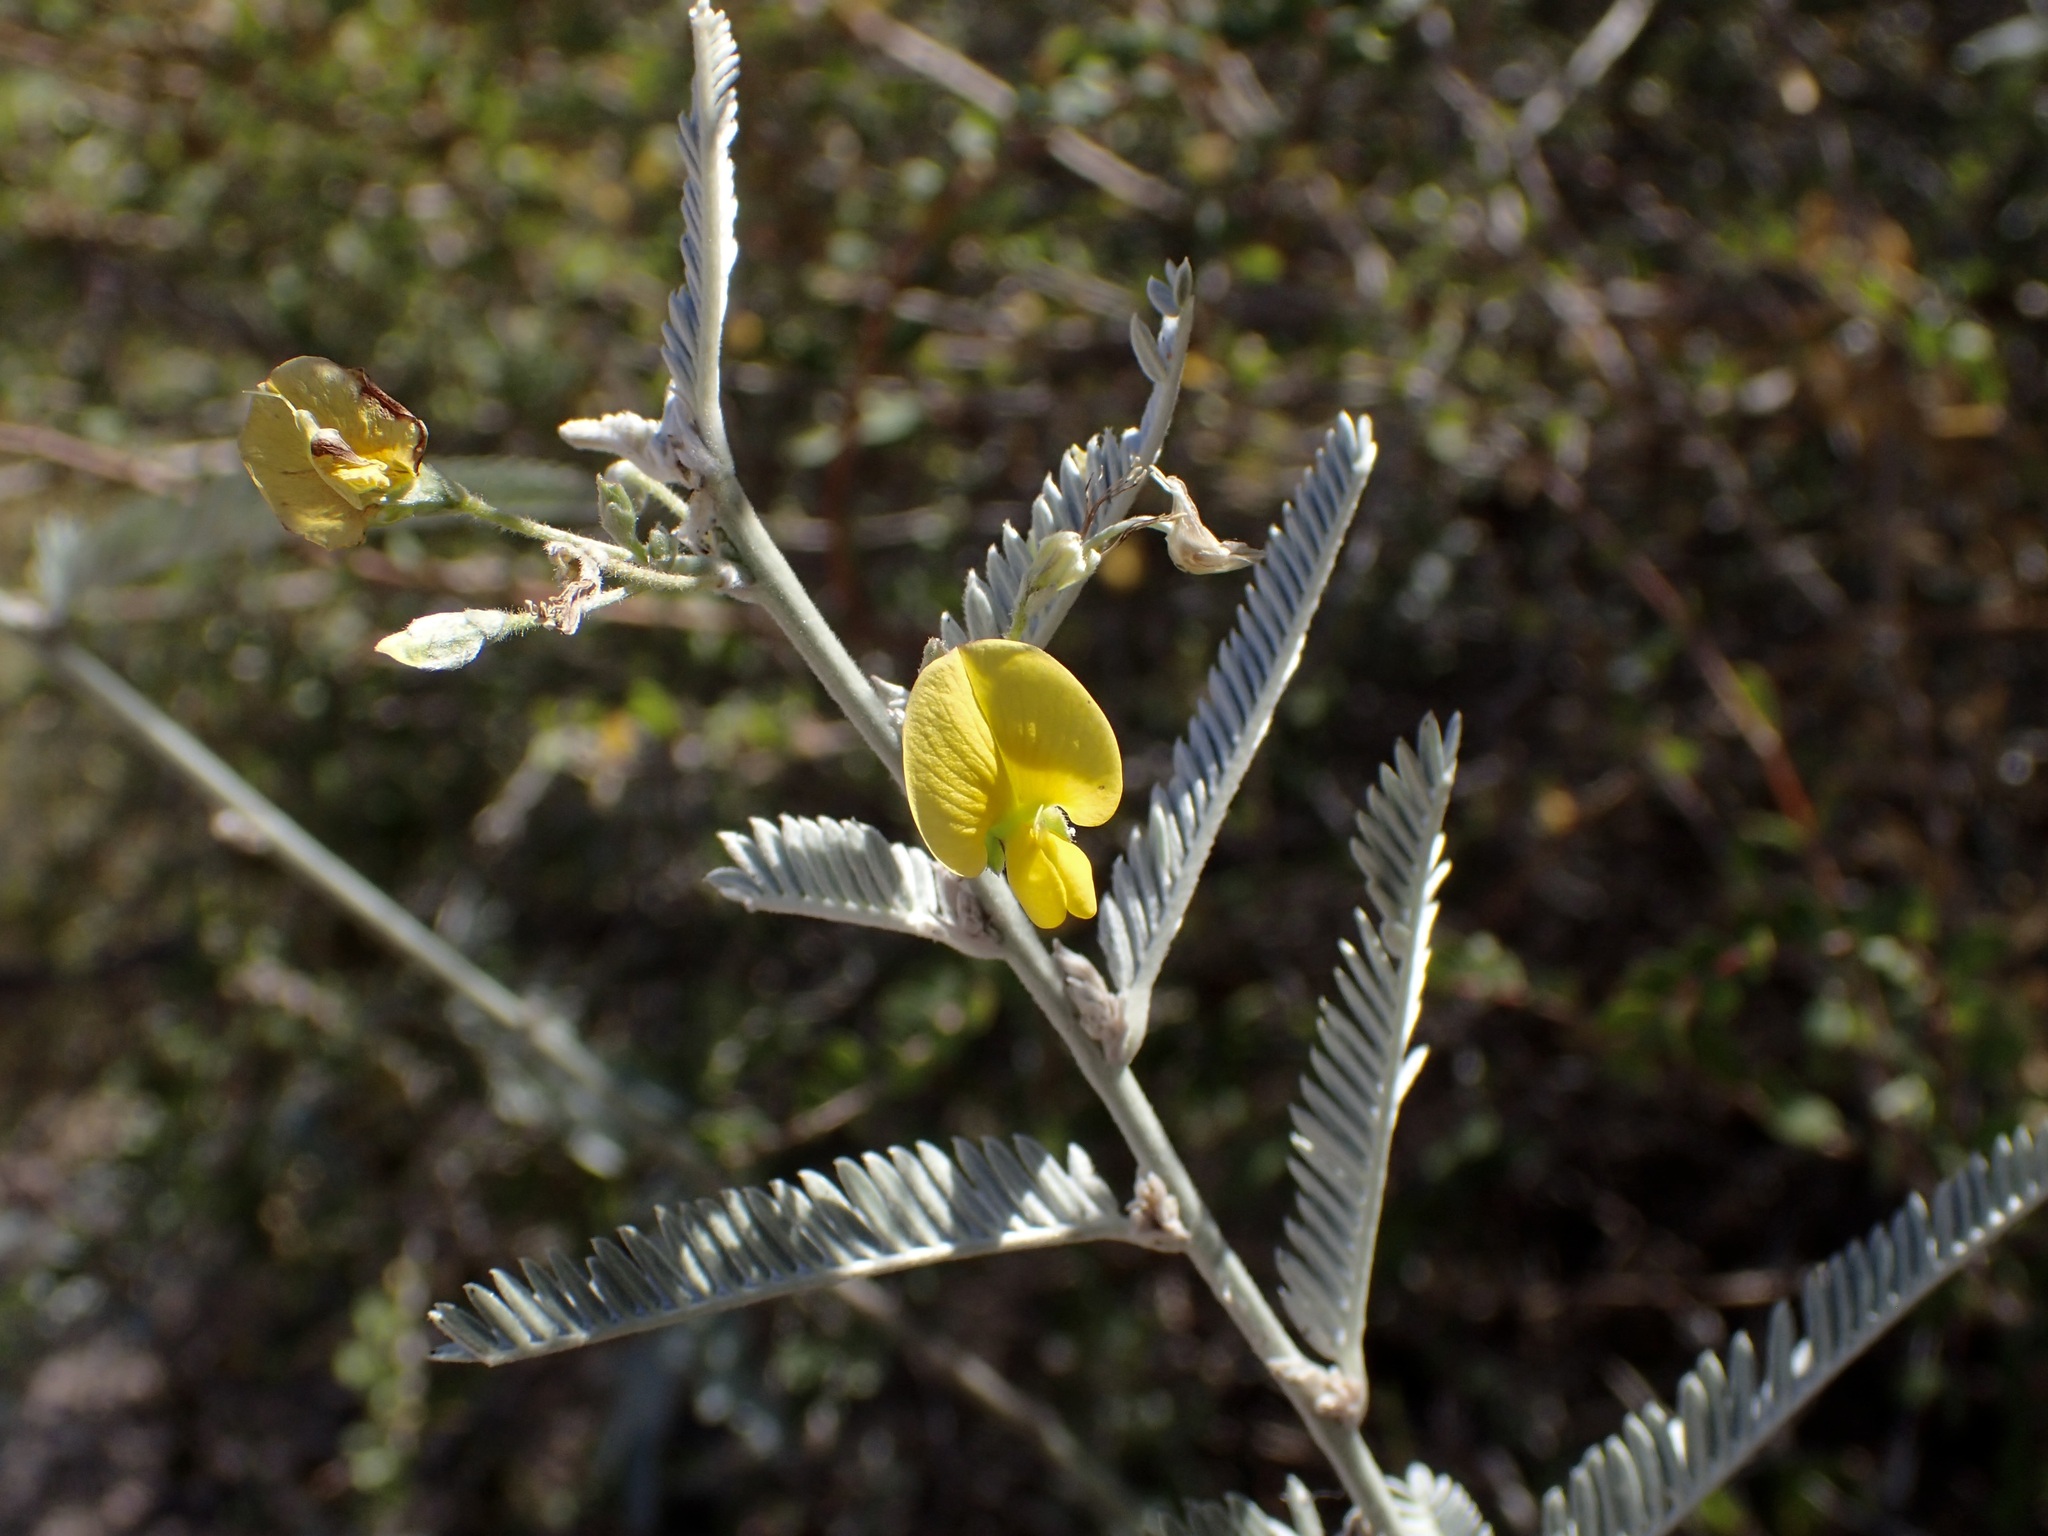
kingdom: Plantae
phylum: Tracheophyta
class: Magnoliopsida
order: Fabales
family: Fabaceae
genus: Ctenodon
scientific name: Ctenodon niveus
